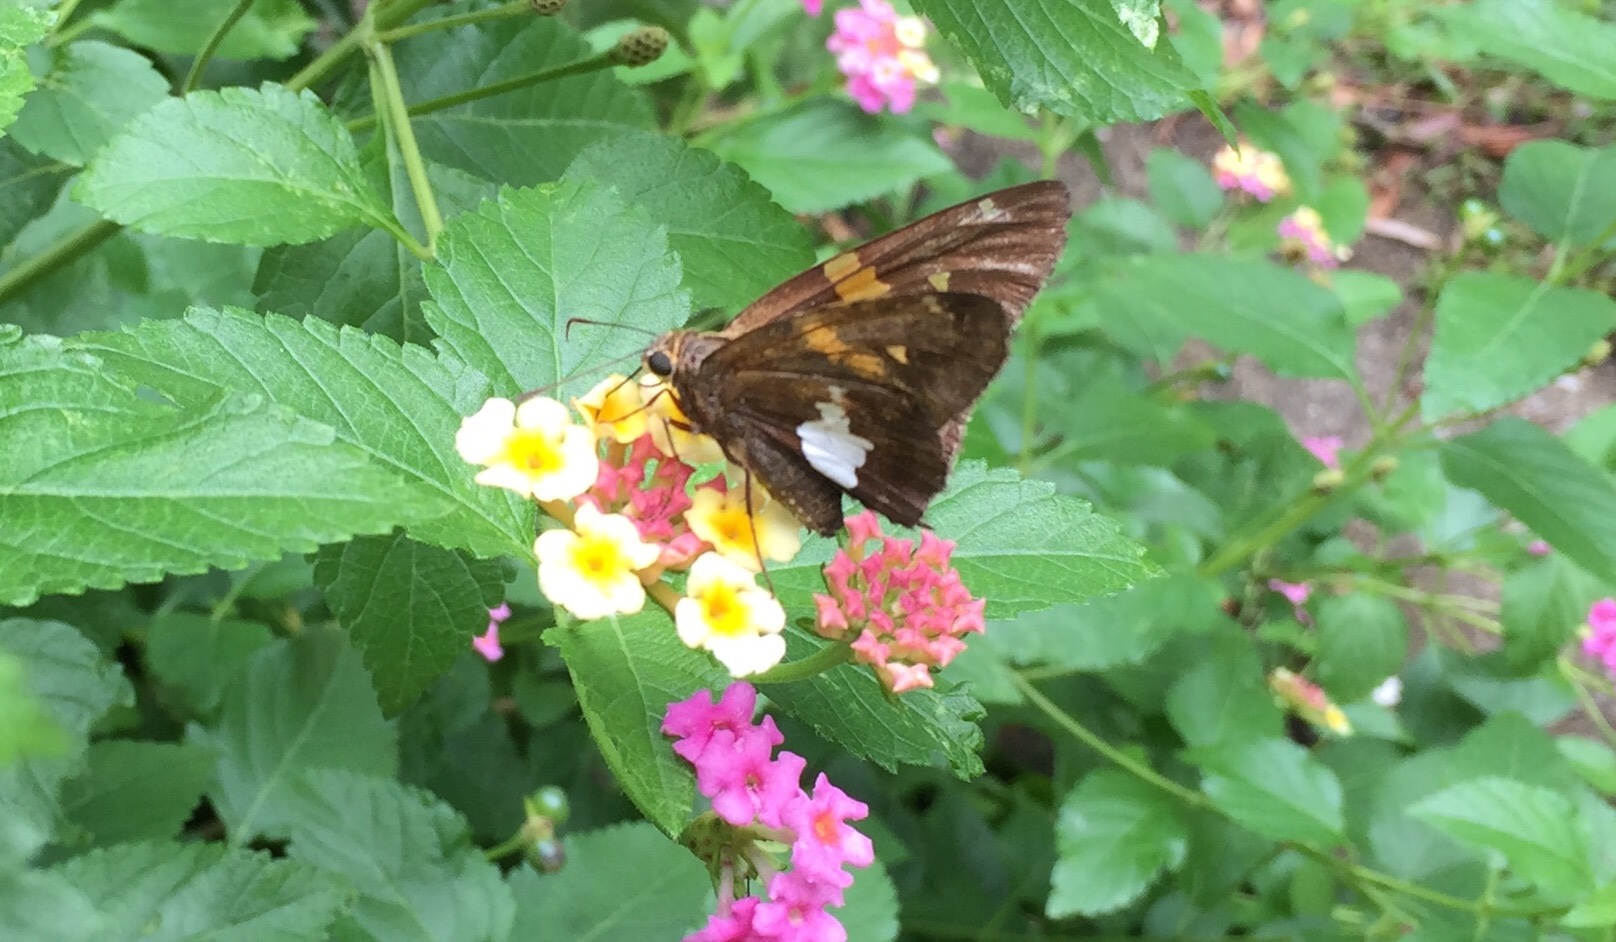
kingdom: Animalia
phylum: Arthropoda
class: Insecta
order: Lepidoptera
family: Hesperiidae
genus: Epargyreus
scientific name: Epargyreus clarus
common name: Silver-spotted skipper
